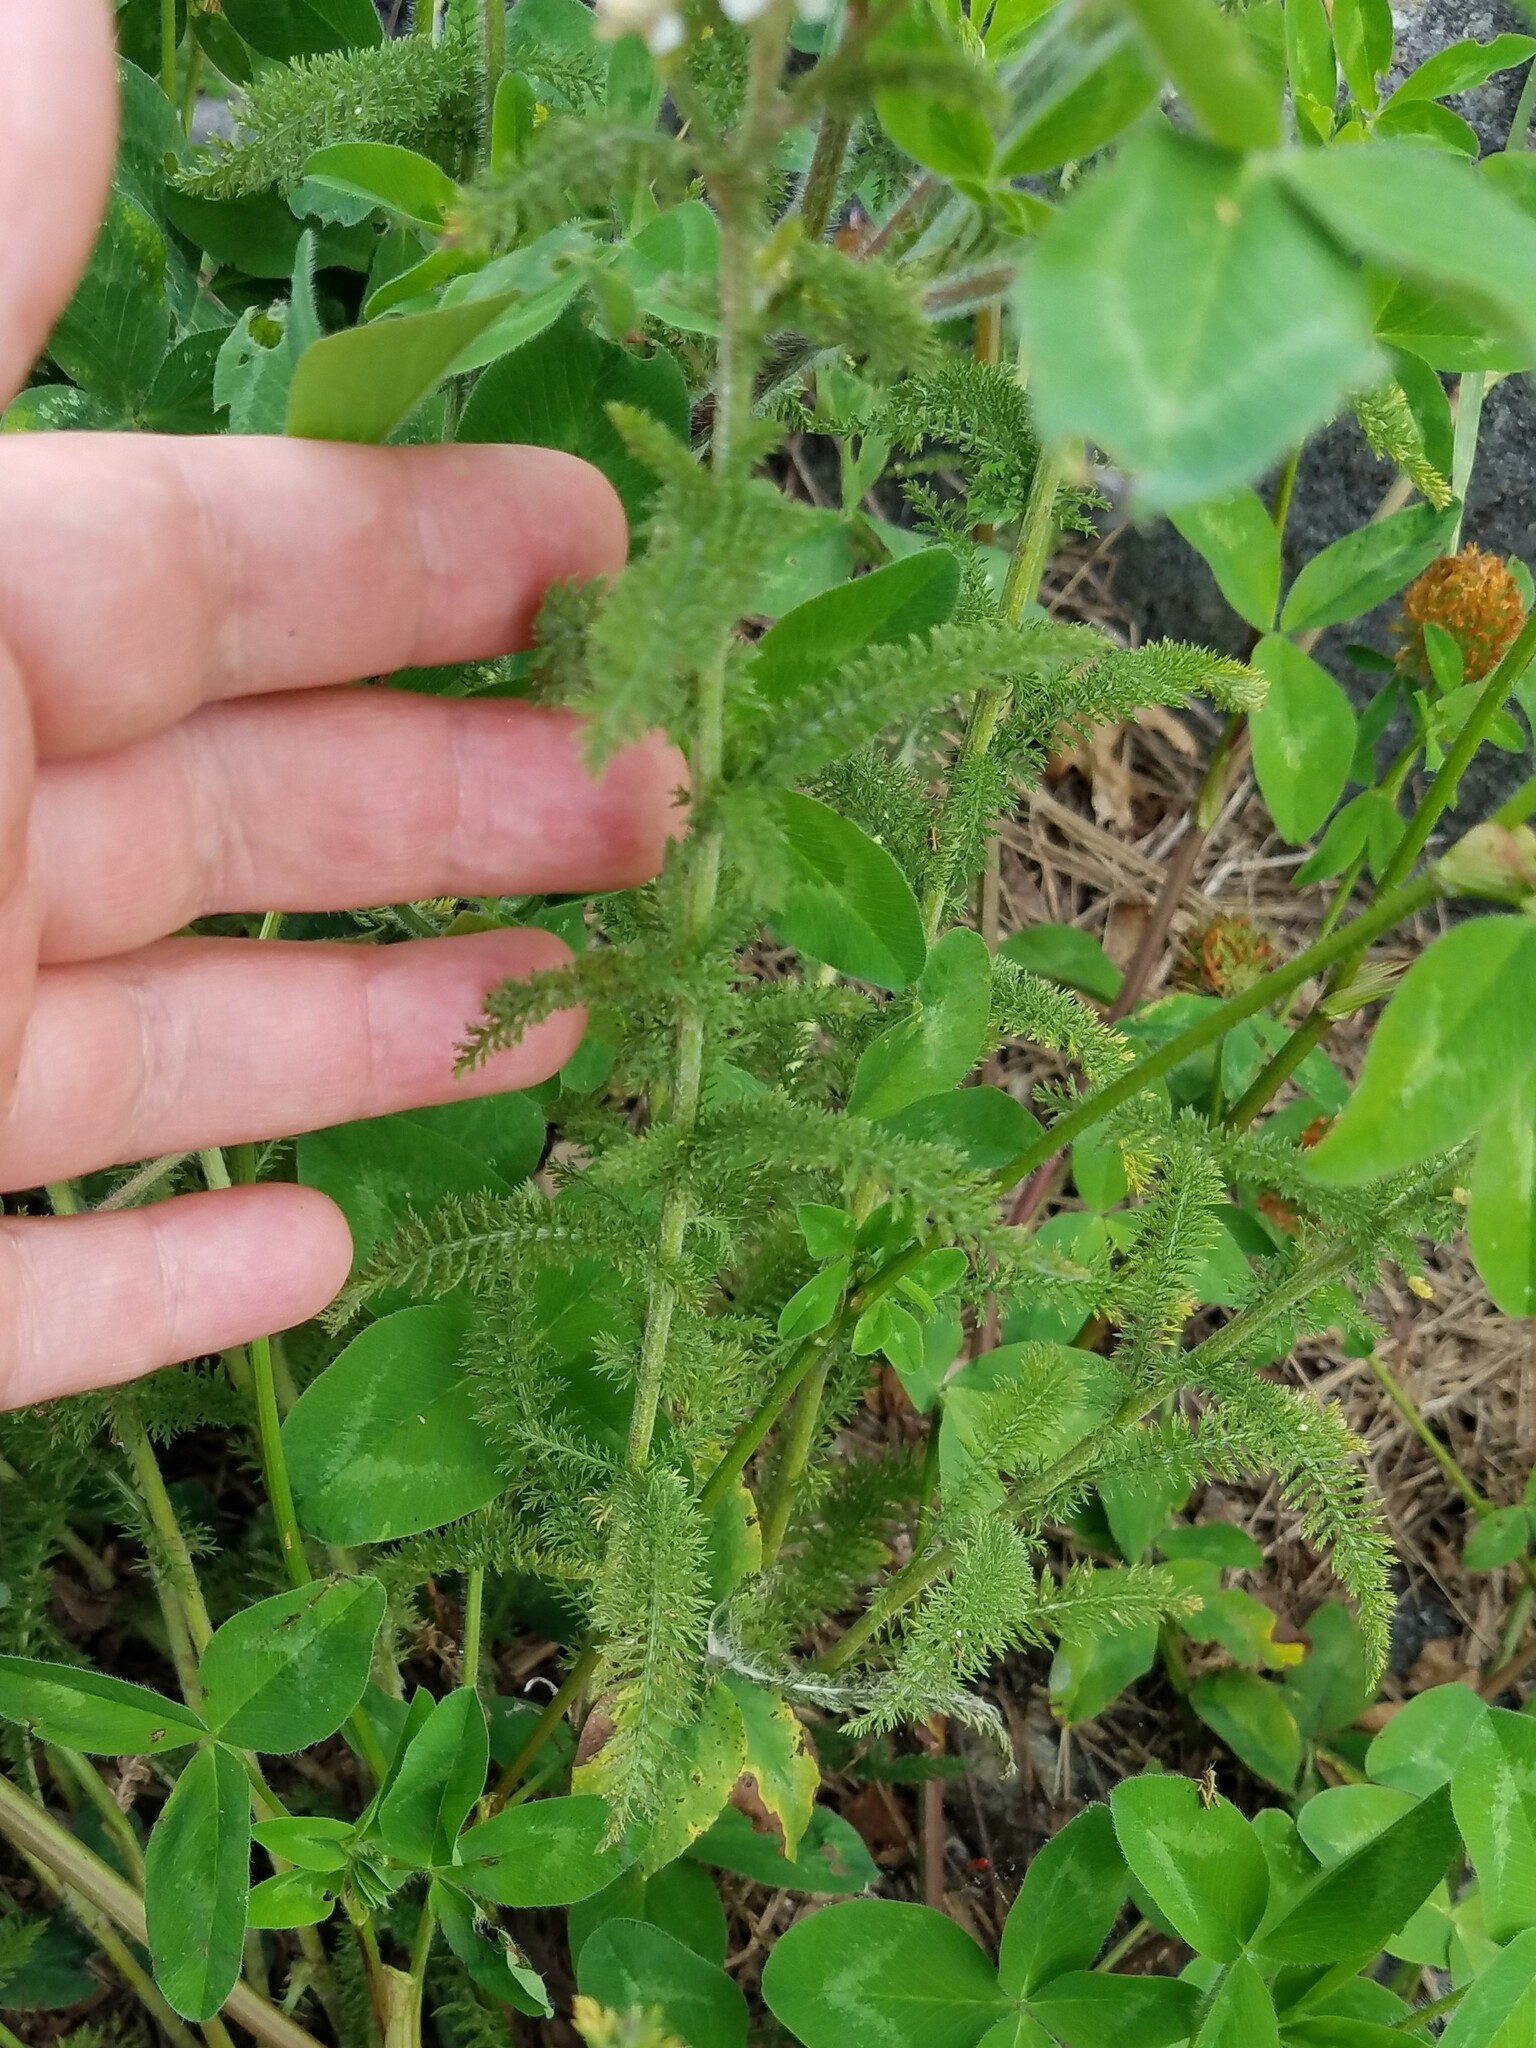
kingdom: Plantae
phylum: Tracheophyta
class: Magnoliopsida
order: Asterales
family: Asteraceae
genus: Achillea
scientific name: Achillea millefolium
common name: Yarrow
